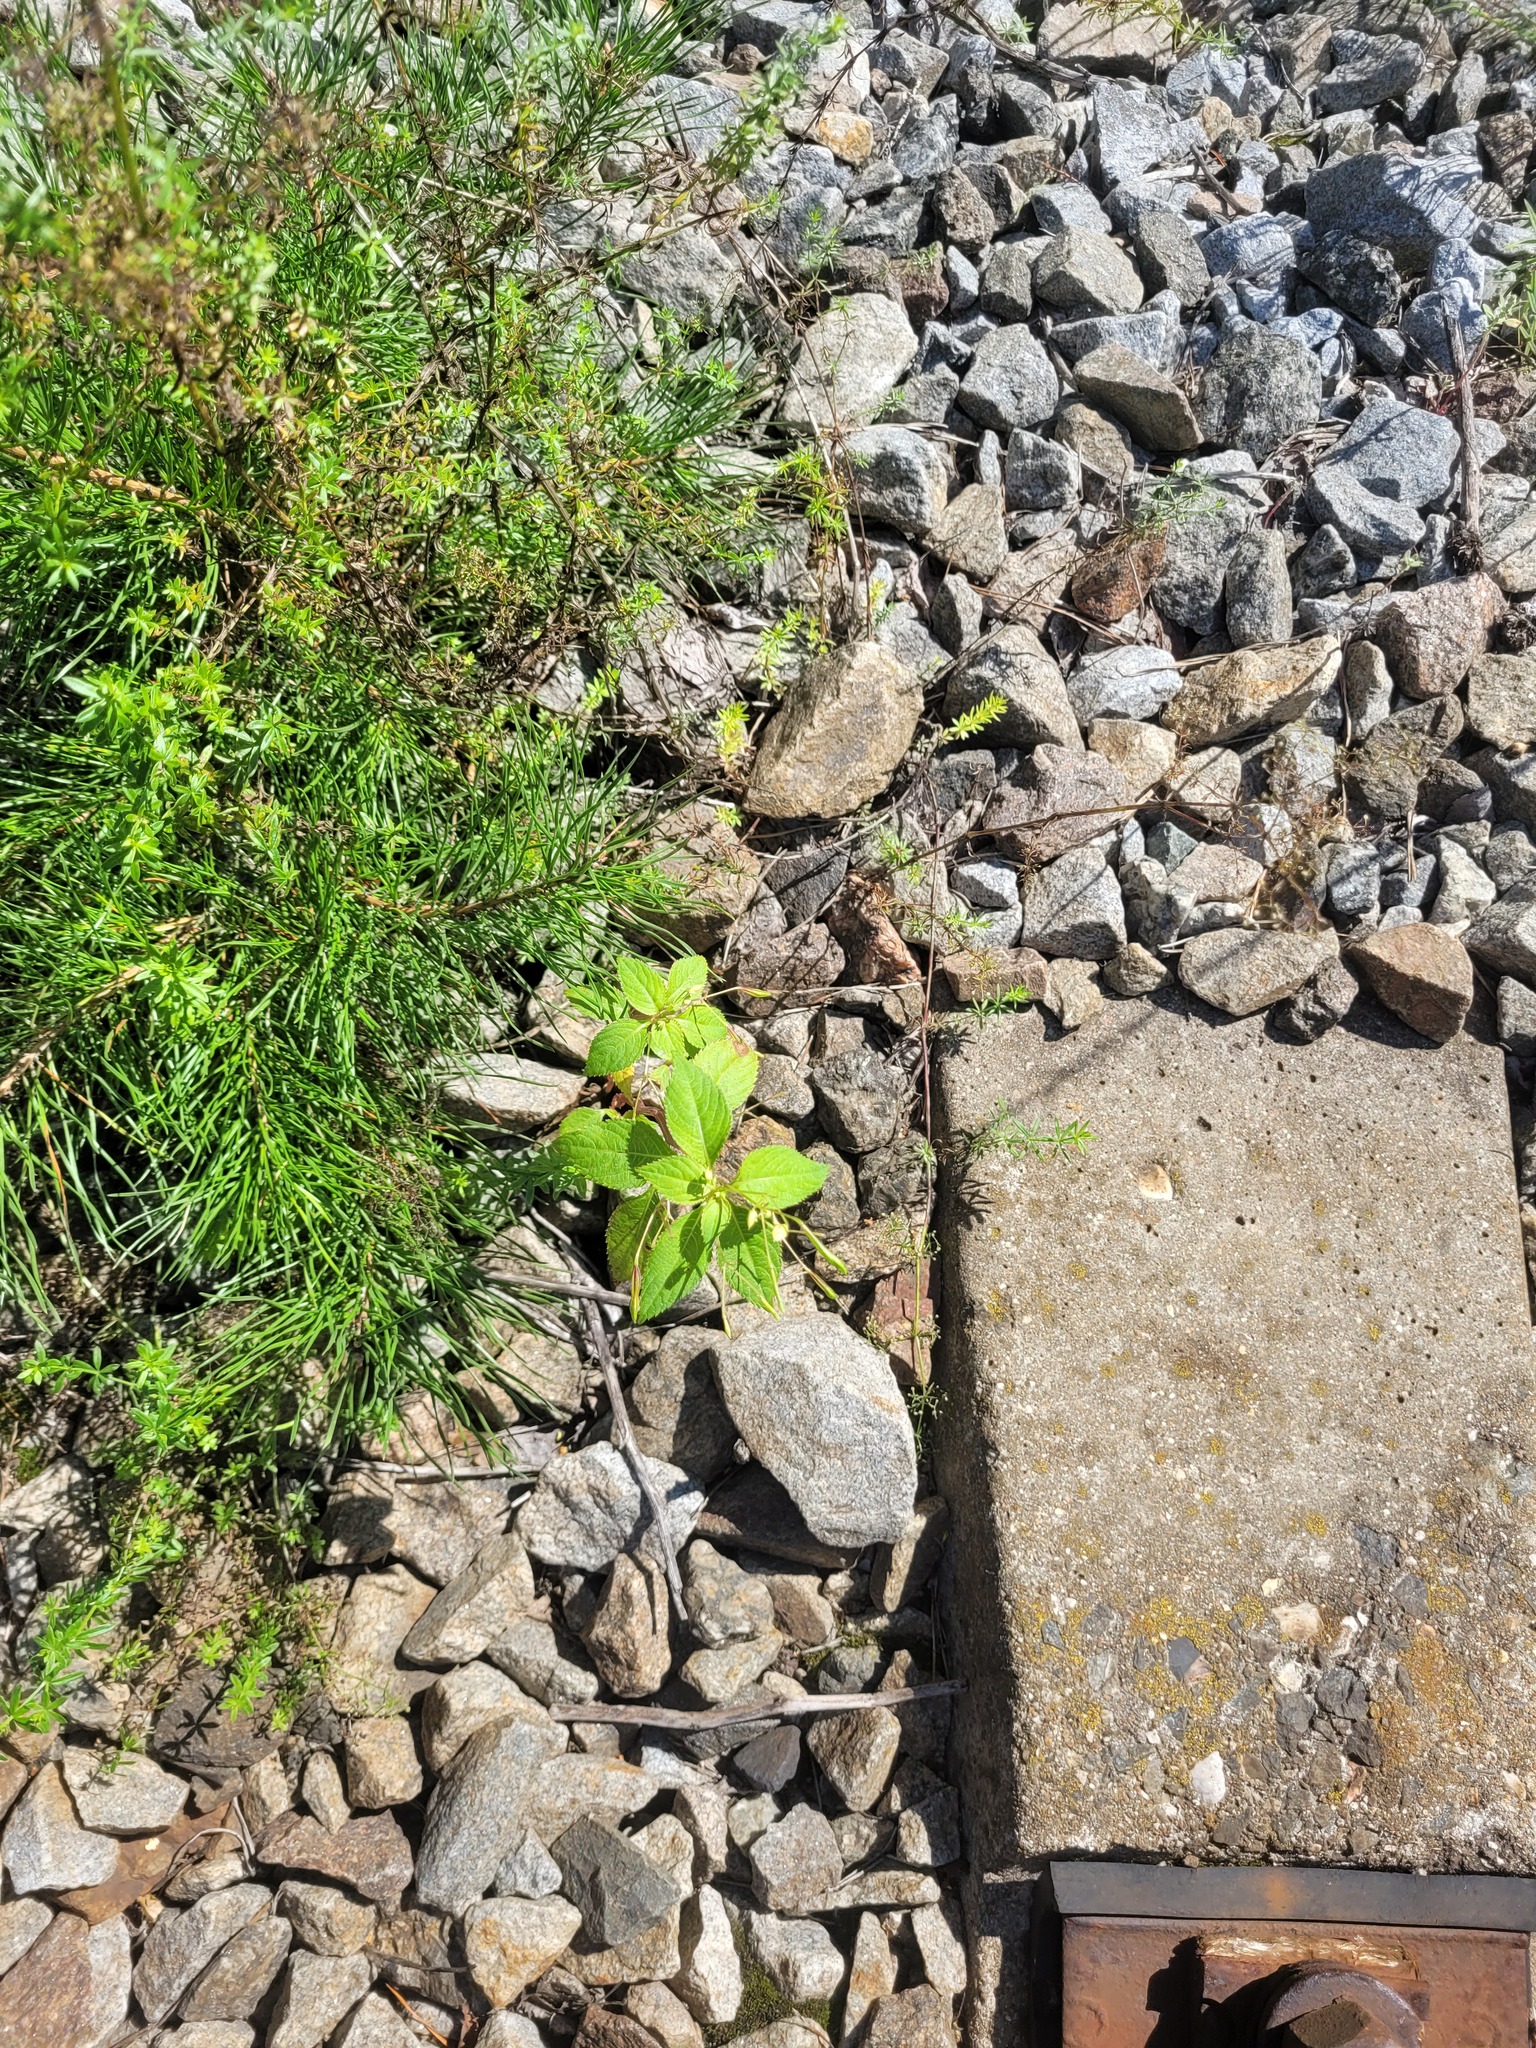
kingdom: Plantae
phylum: Tracheophyta
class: Magnoliopsida
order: Ericales
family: Balsaminaceae
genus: Impatiens
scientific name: Impatiens parviflora
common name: Small balsam
